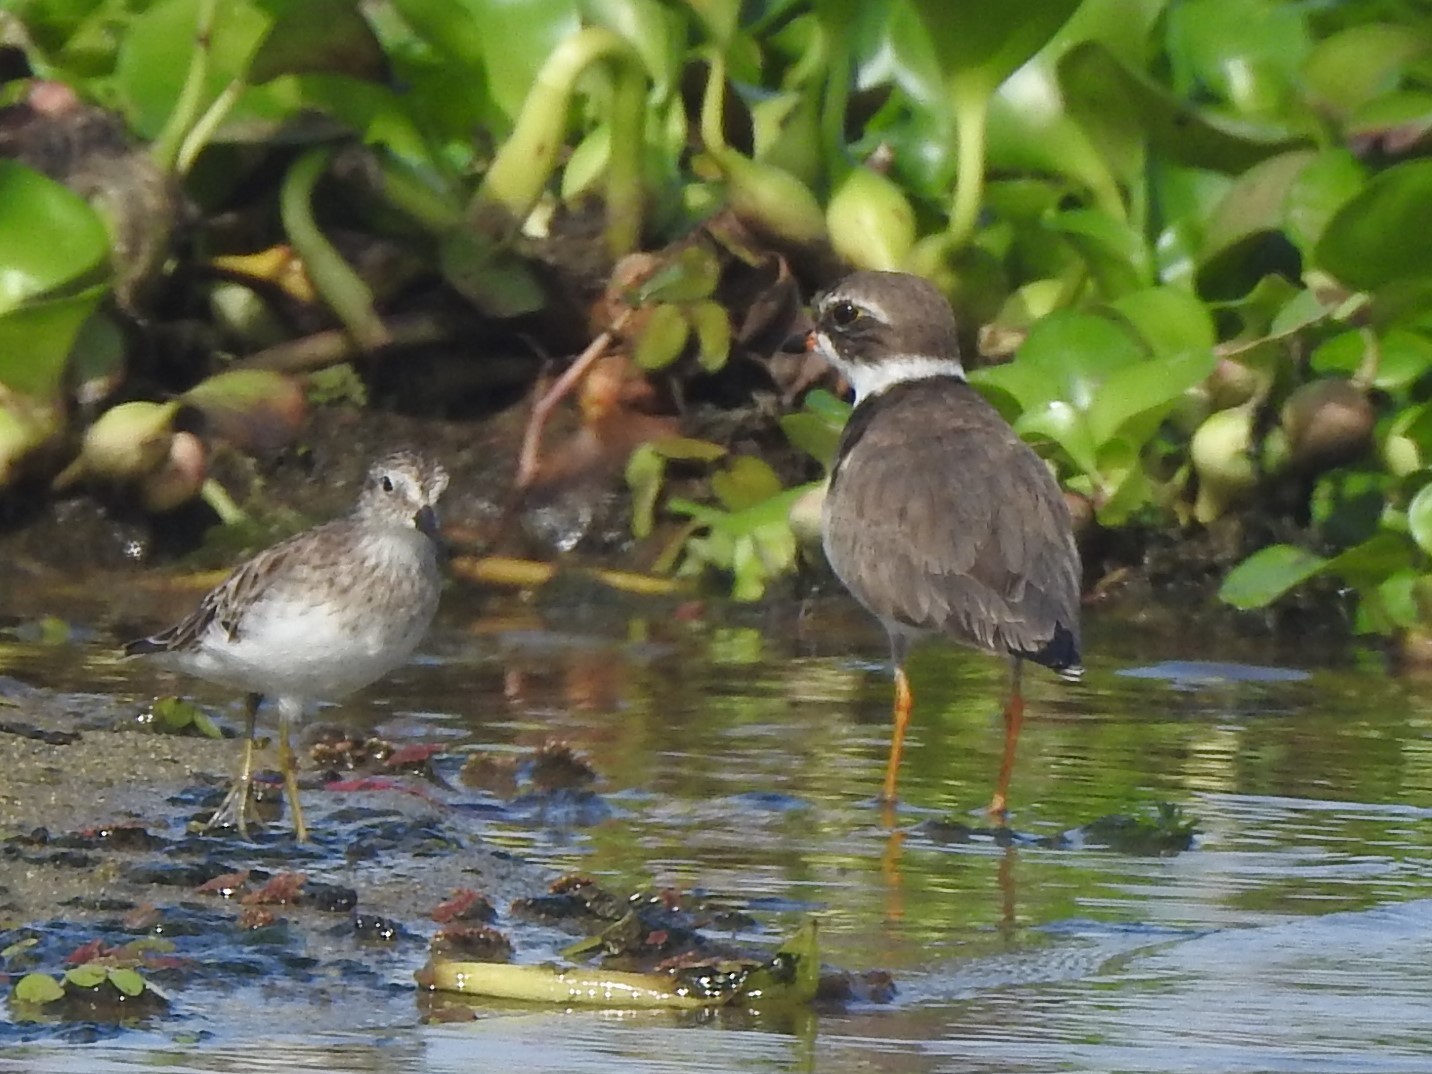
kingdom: Animalia
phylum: Chordata
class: Aves
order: Charadriiformes
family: Charadriidae
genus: Charadrius
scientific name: Charadrius semipalmatus
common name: Semipalmated plover
